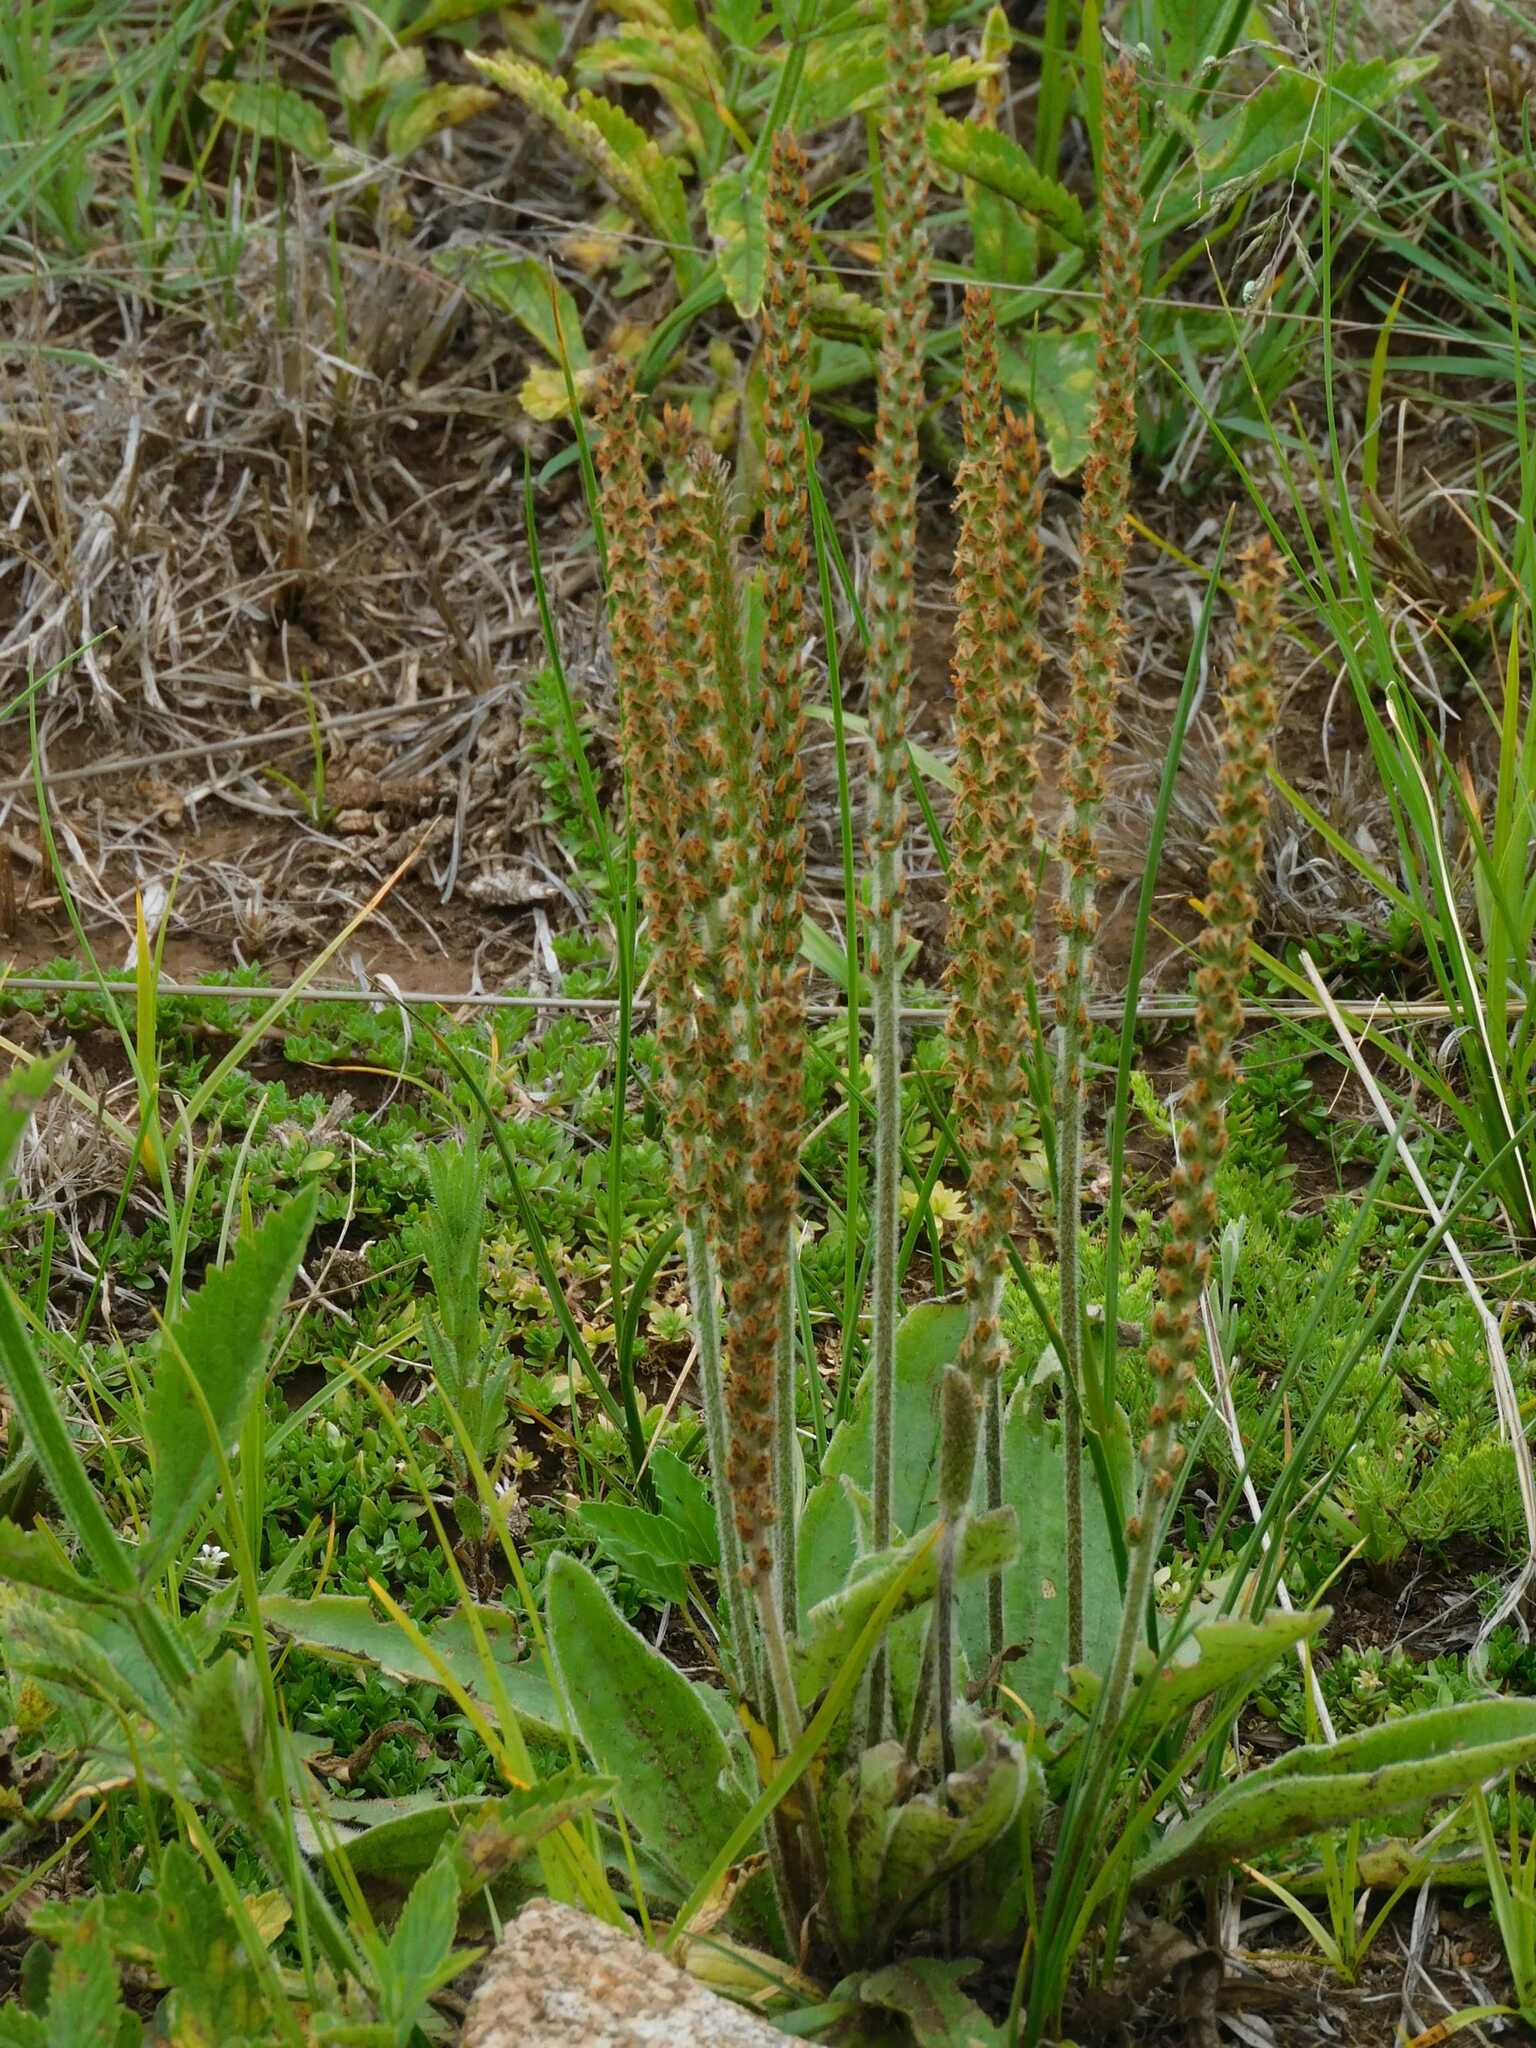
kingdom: Plantae
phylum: Tracheophyta
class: Magnoliopsida
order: Lamiales
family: Plantaginaceae
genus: Plantago
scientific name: Plantago major
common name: Common plantain
